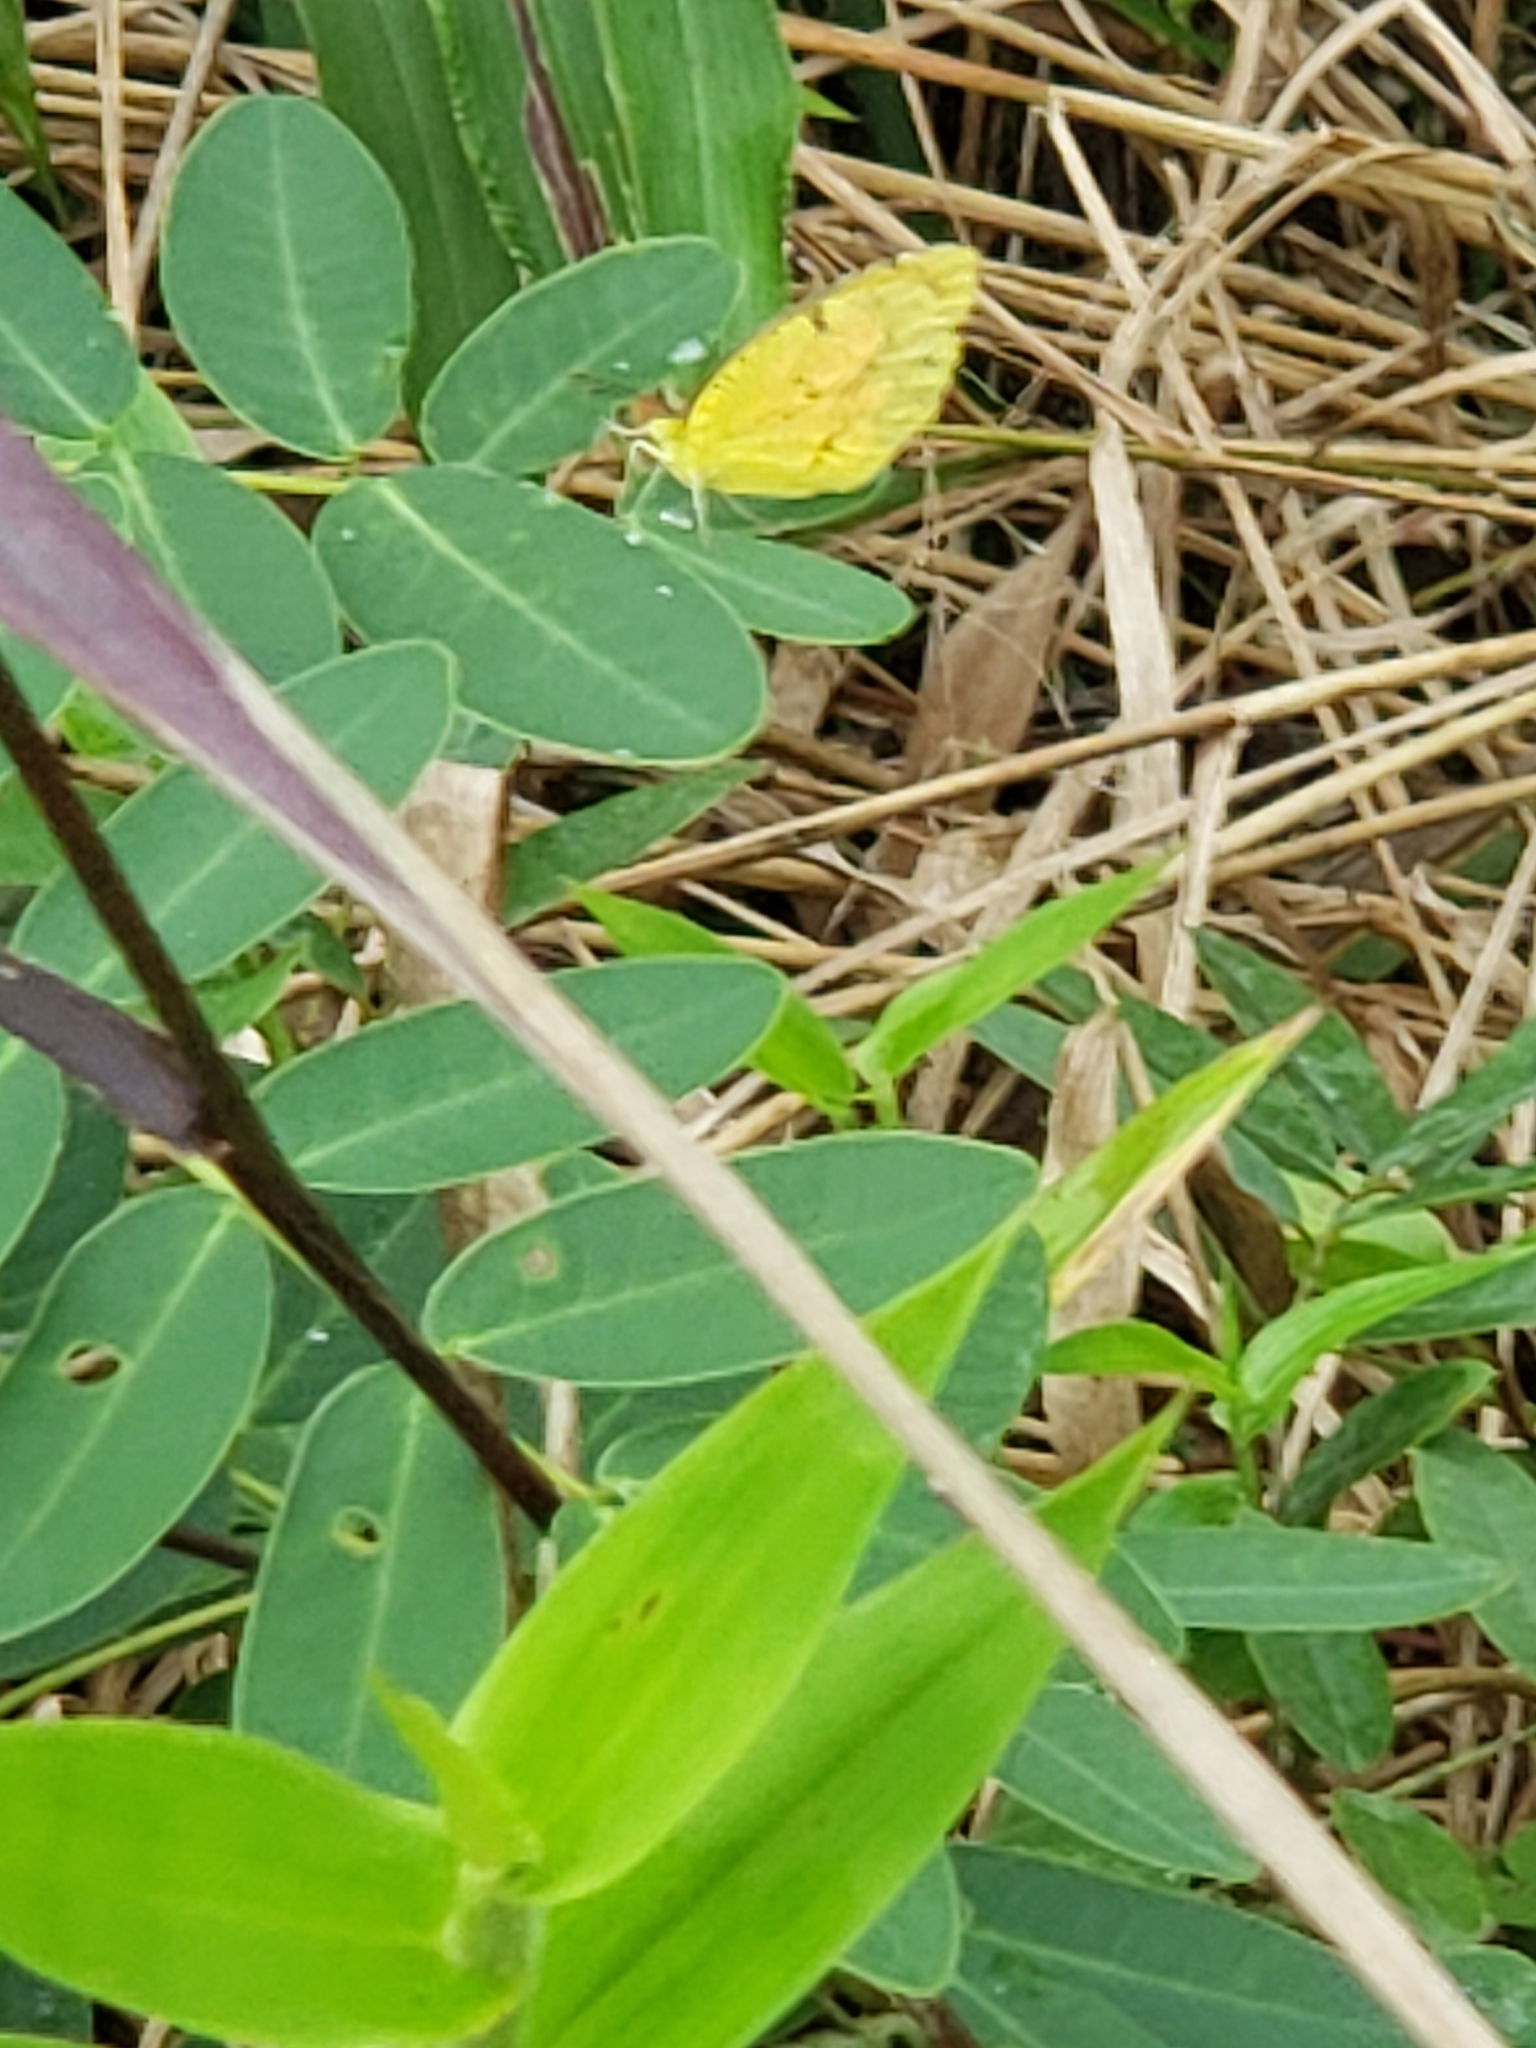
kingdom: Animalia
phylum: Arthropoda
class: Insecta
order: Lepidoptera
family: Pieridae
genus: Abaeis
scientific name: Abaeis nicippe
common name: Sleepy orange
